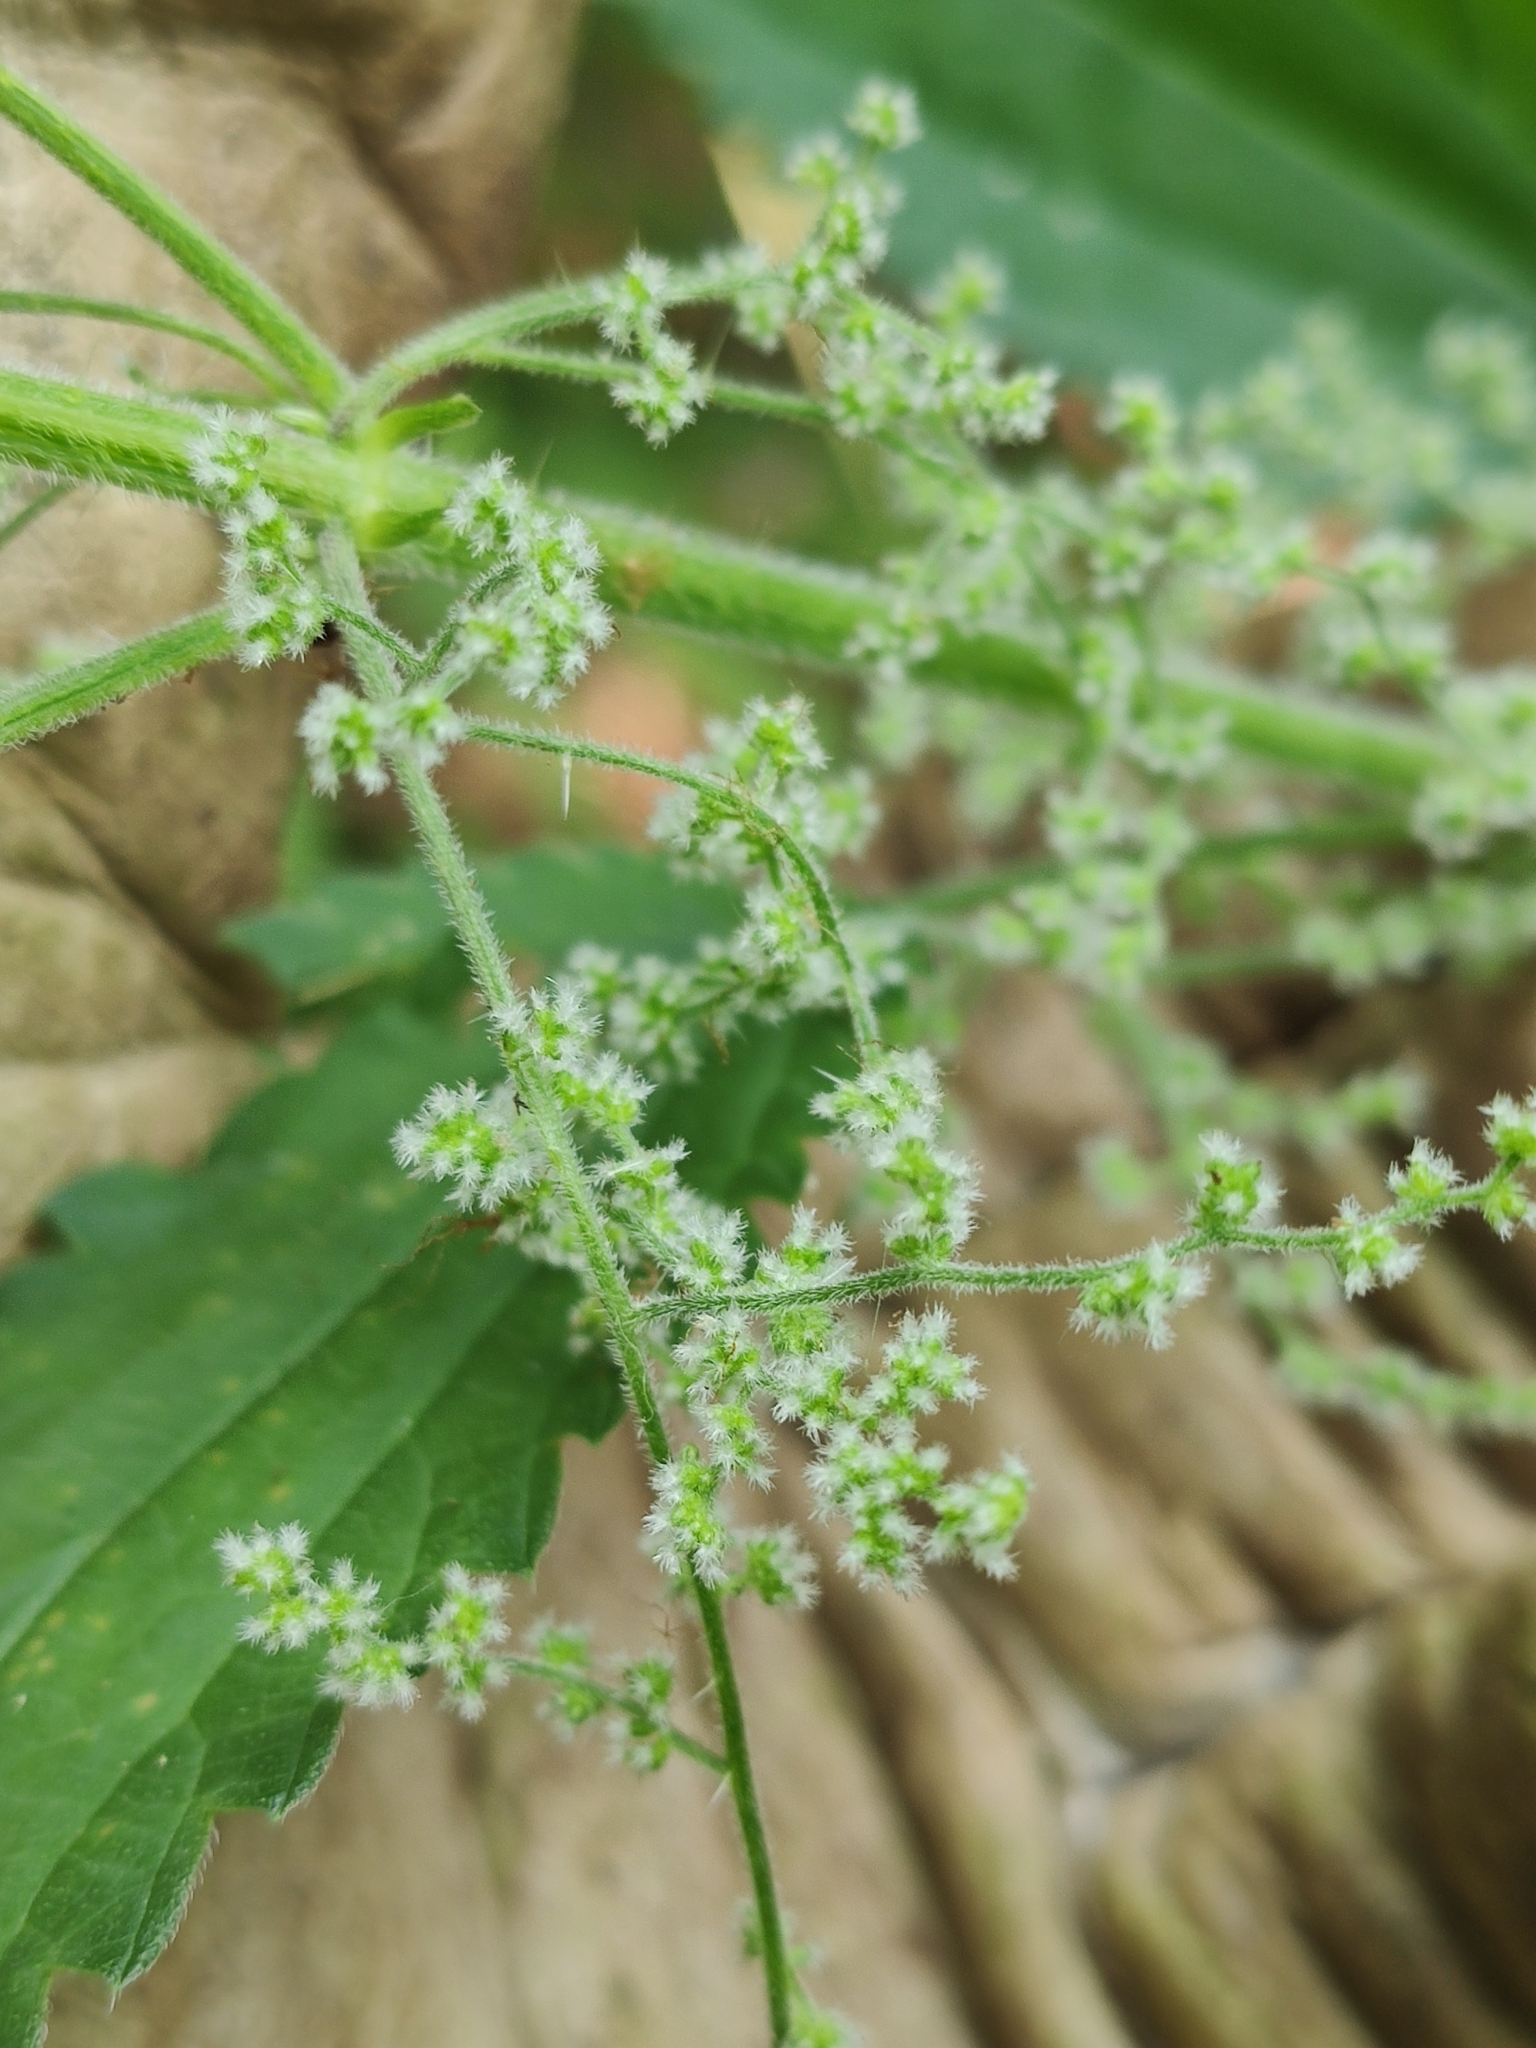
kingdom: Plantae
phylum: Tracheophyta
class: Magnoliopsida
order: Rosales
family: Urticaceae
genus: Urtica
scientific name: Urtica dioica
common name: Common nettle
